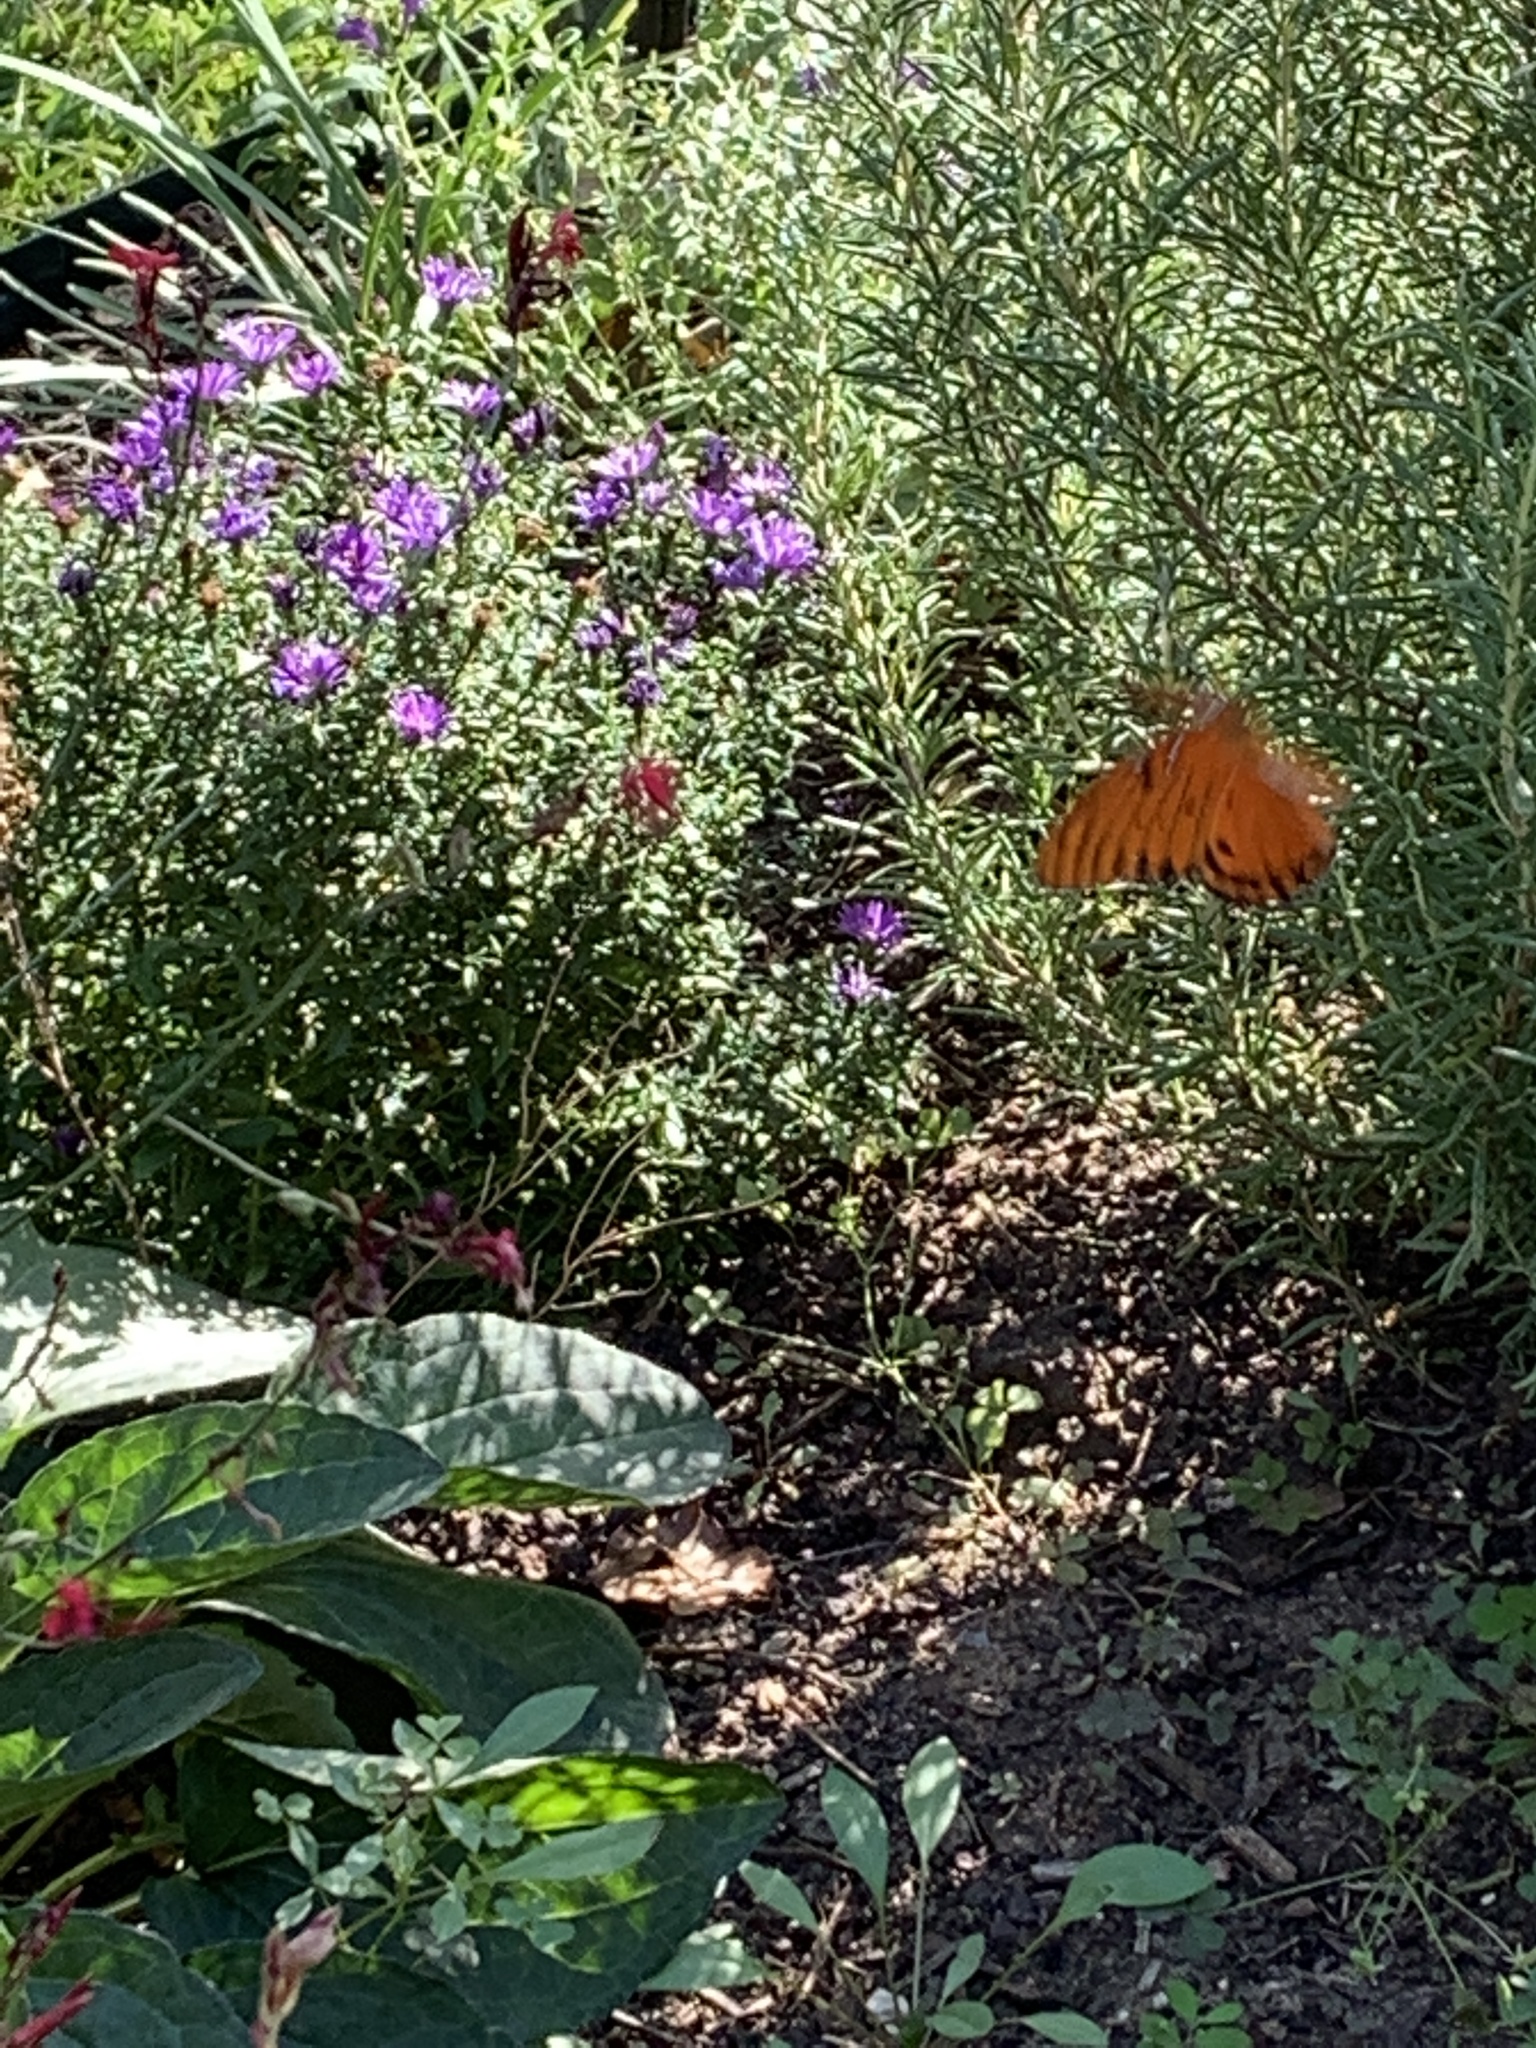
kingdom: Animalia
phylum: Arthropoda
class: Insecta
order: Lepidoptera
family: Nymphalidae
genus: Dione
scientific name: Dione vanillae
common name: Gulf fritillary
